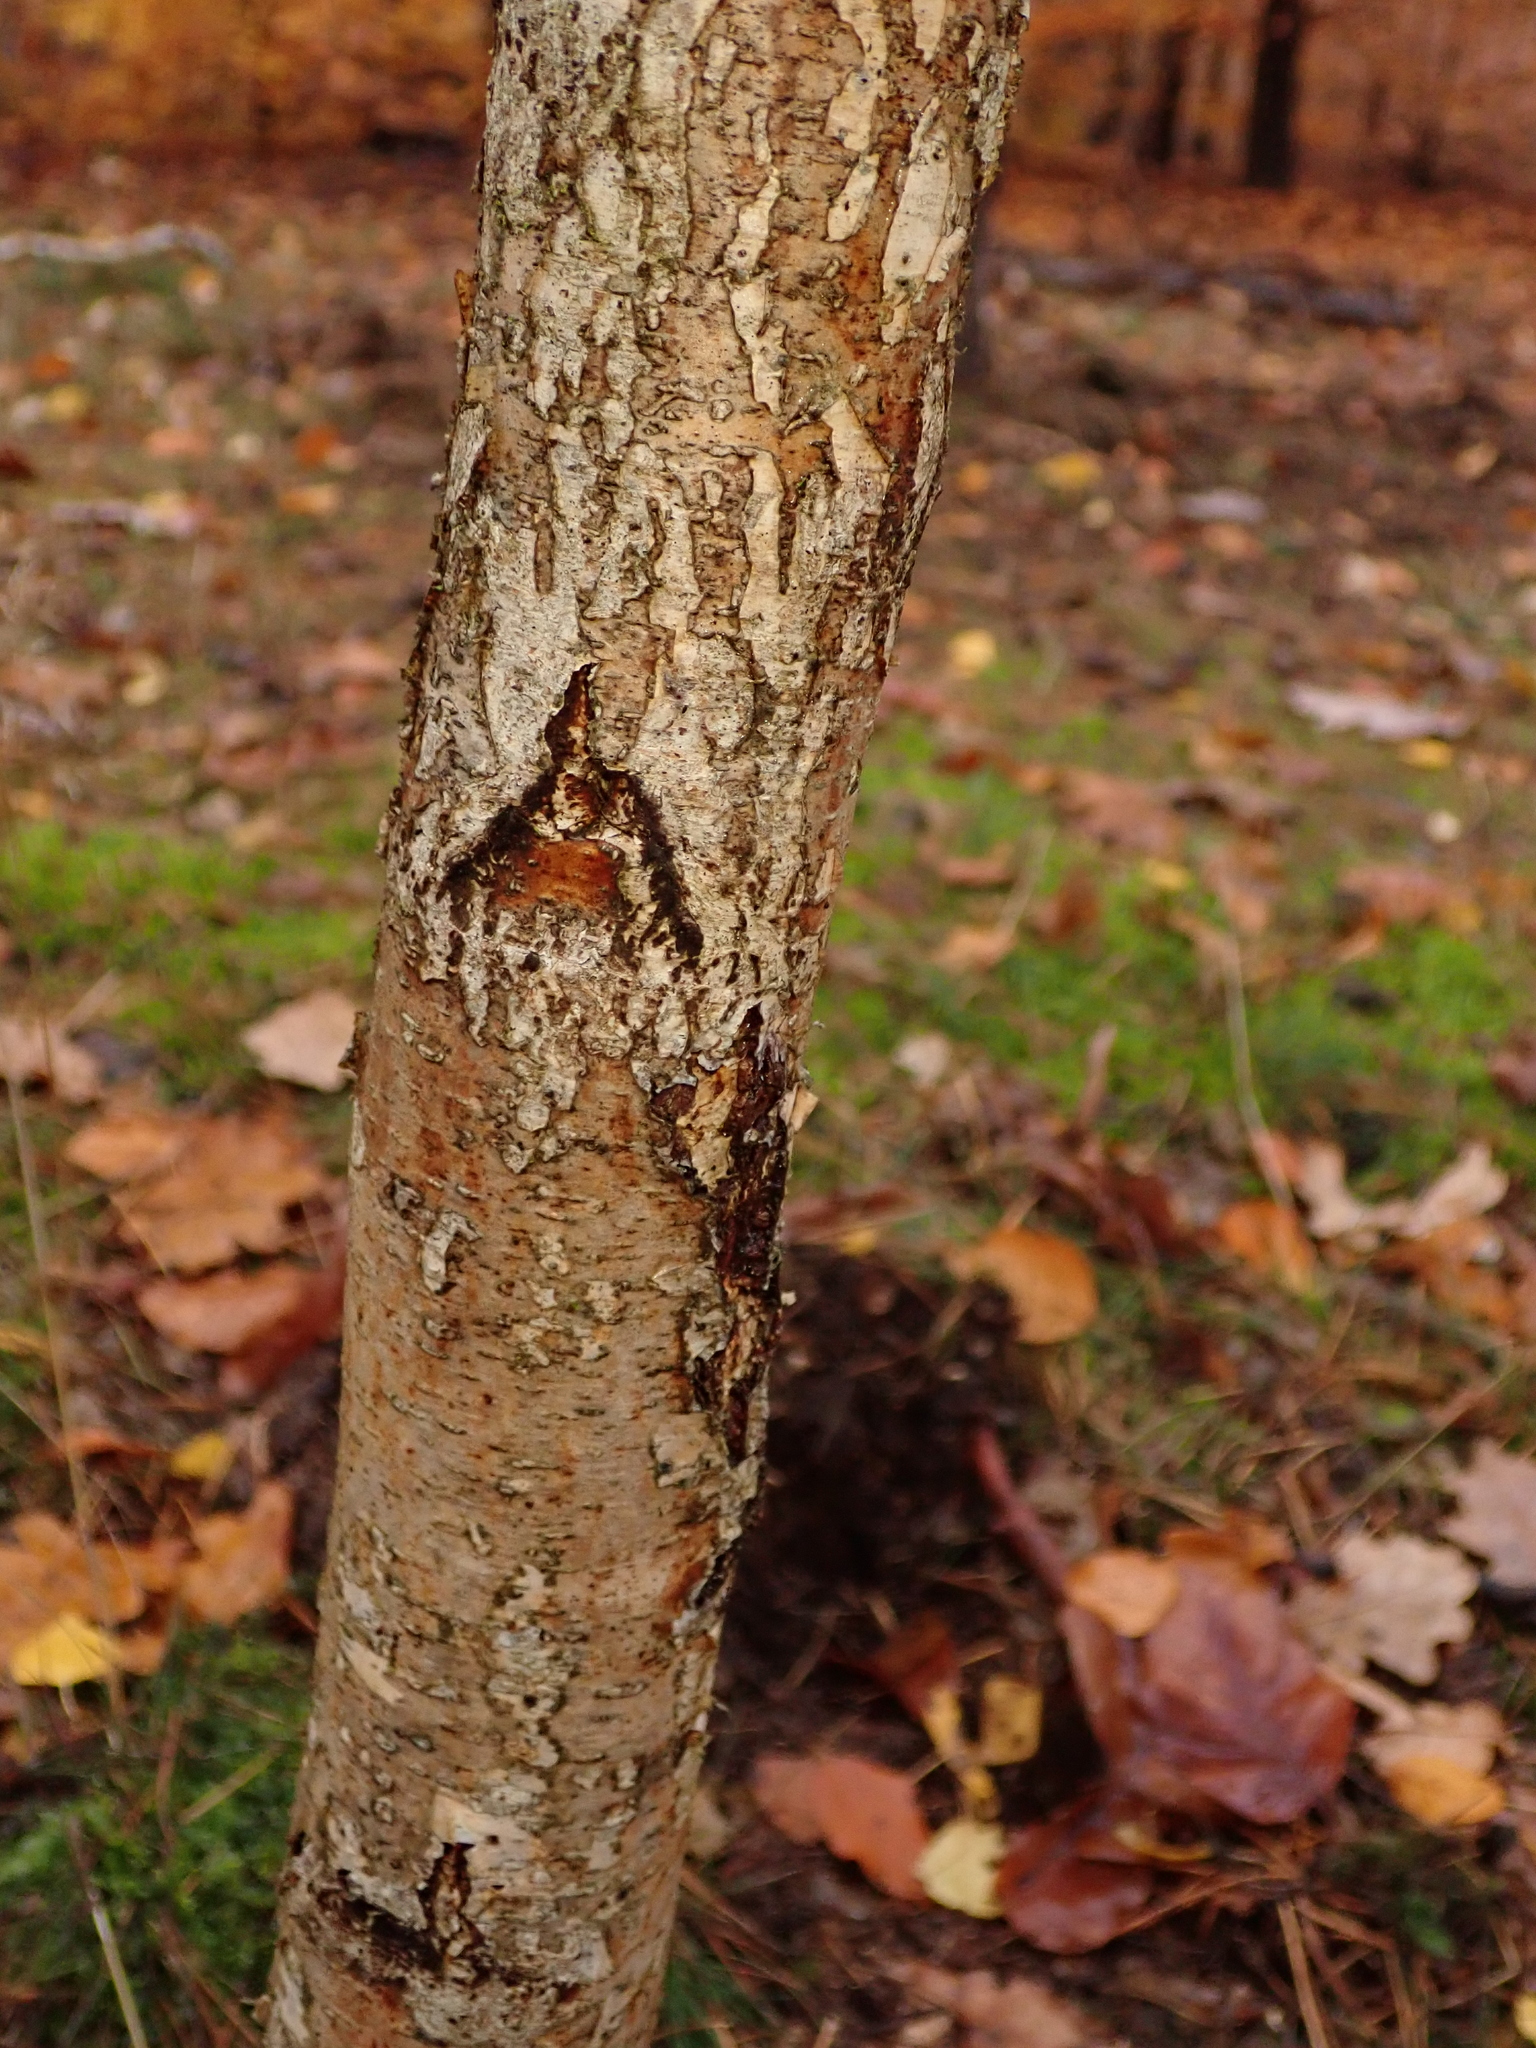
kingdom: Plantae
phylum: Tracheophyta
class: Magnoliopsida
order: Fagales
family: Betulaceae
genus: Betula
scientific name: Betula pendula
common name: Silver birch
